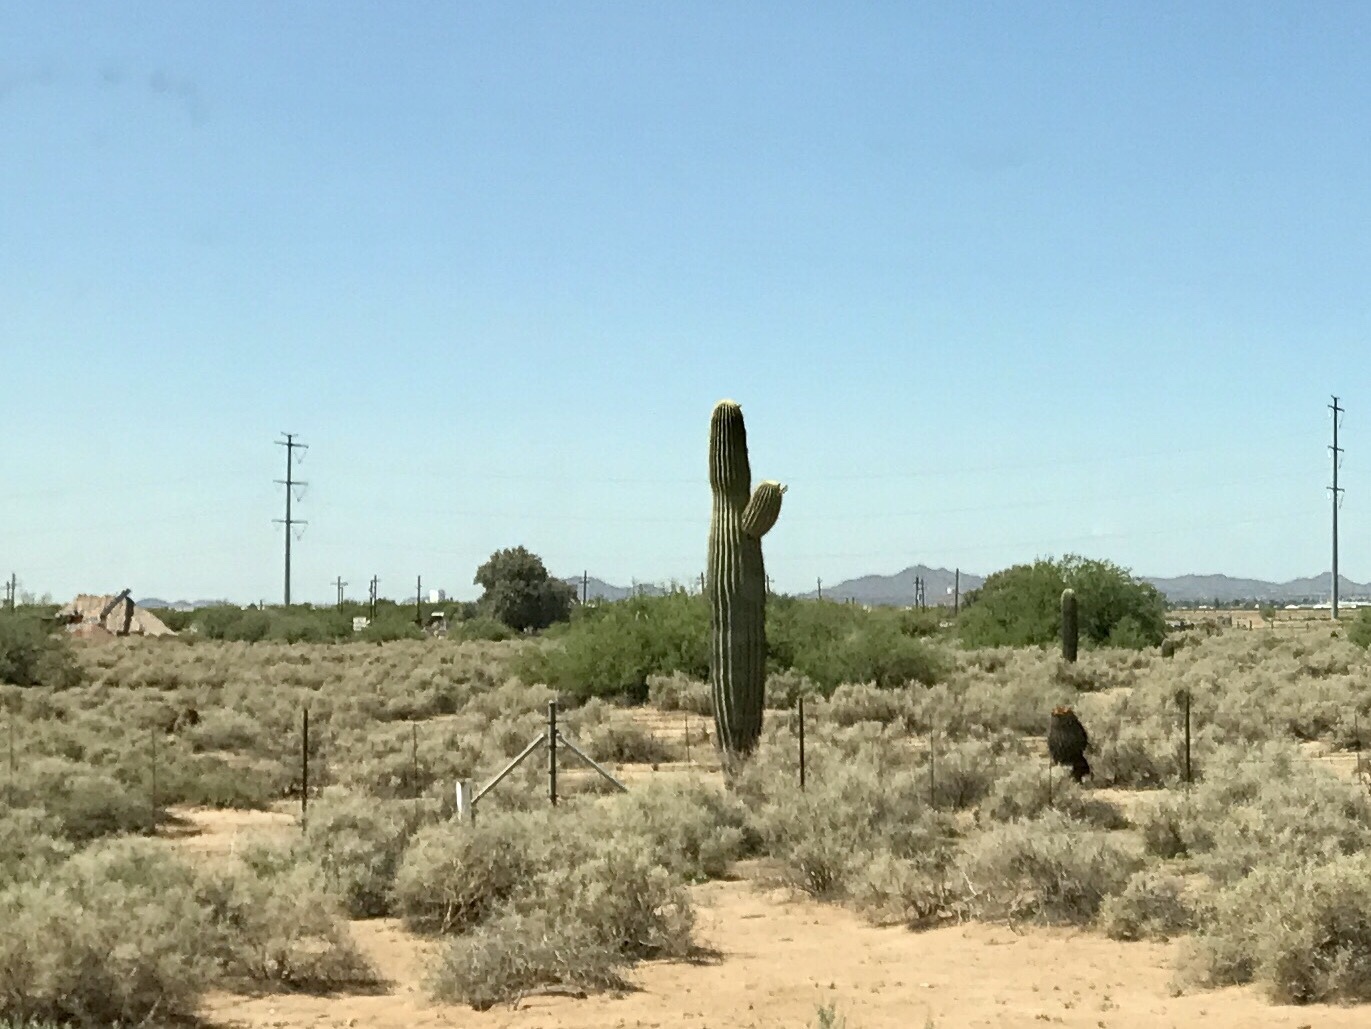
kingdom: Plantae
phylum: Tracheophyta
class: Magnoliopsida
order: Caryophyllales
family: Cactaceae
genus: Carnegiea
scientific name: Carnegiea gigantea
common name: Saguaro
